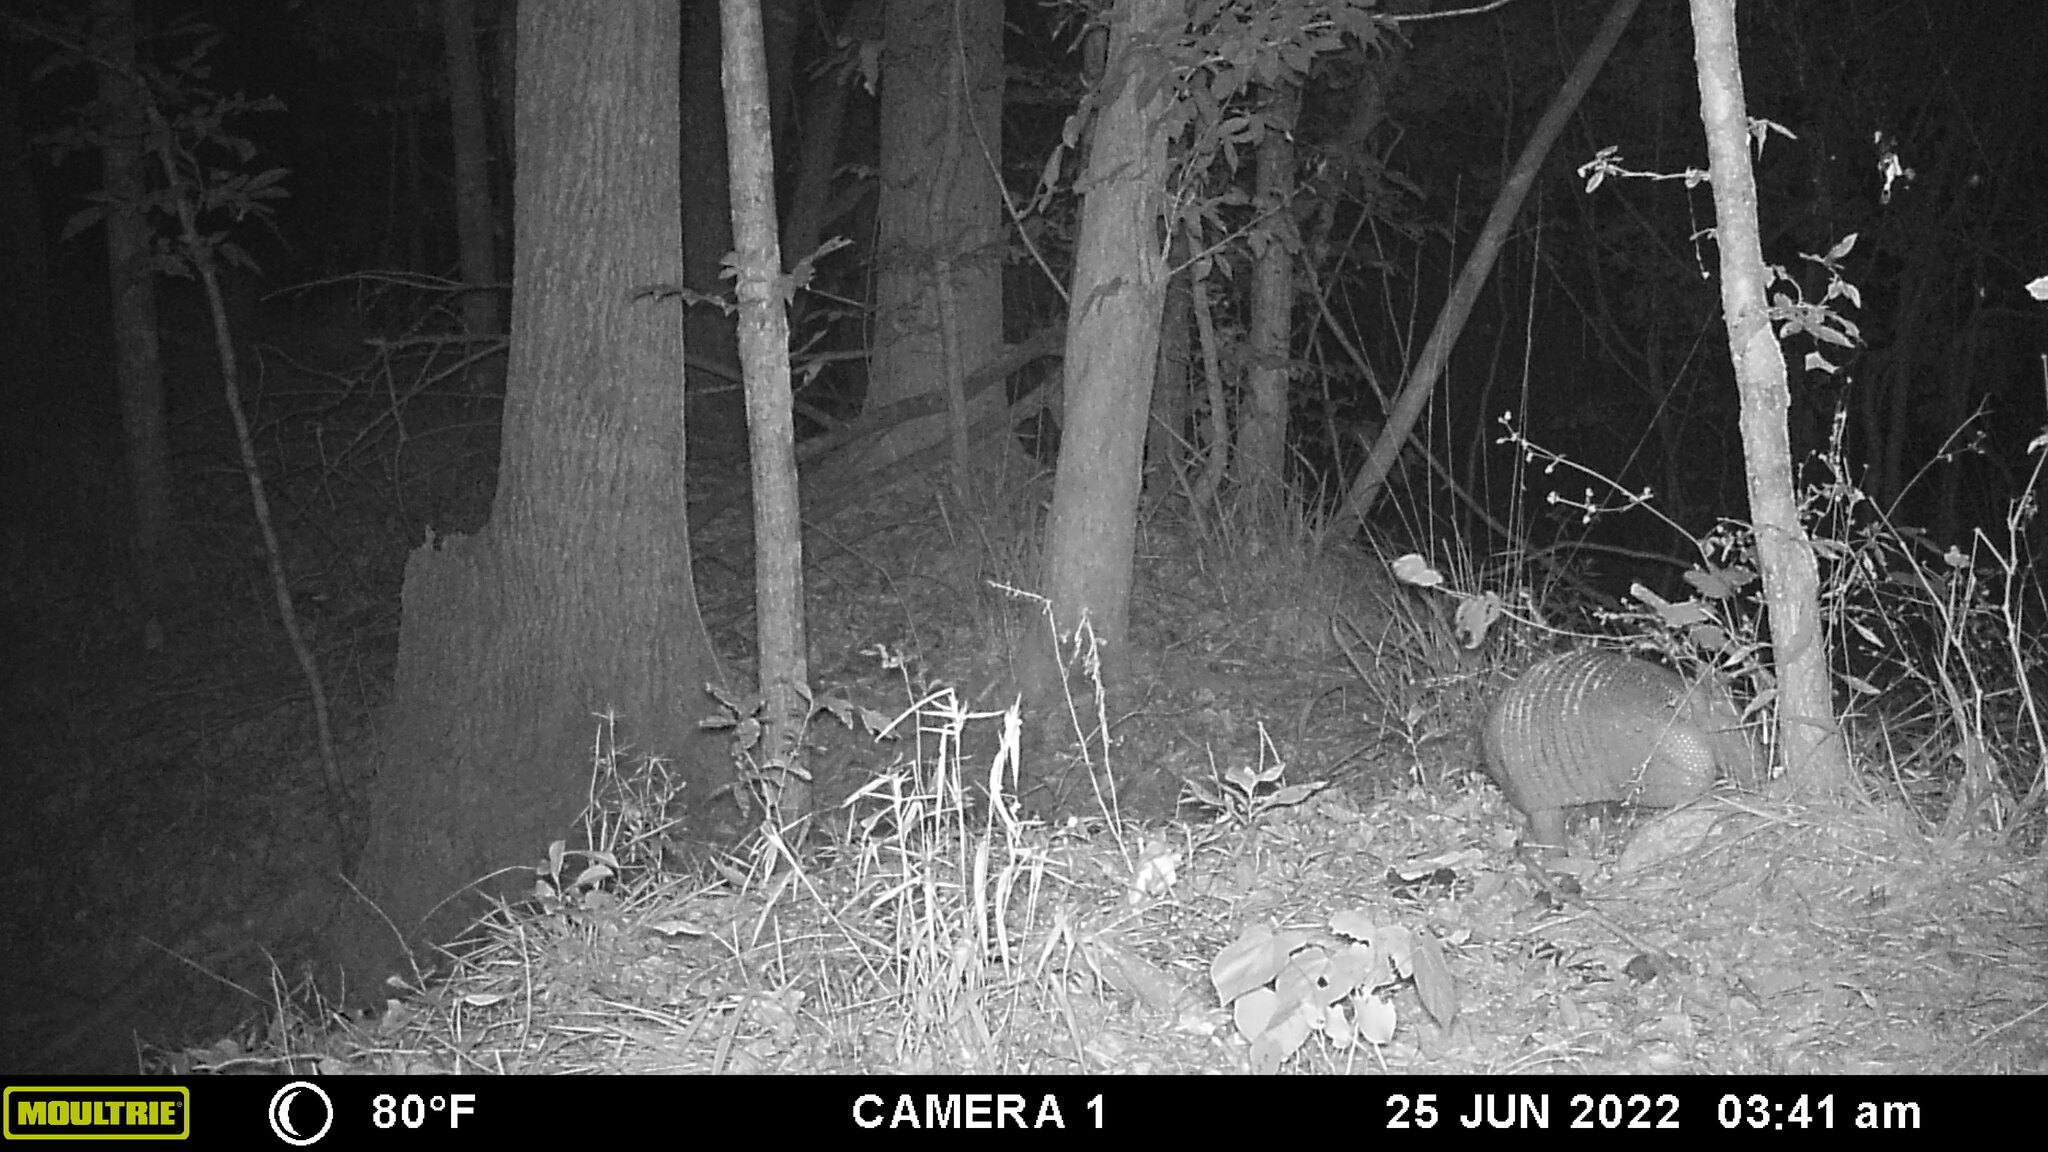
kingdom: Animalia
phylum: Chordata
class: Mammalia
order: Cingulata
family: Dasypodidae
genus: Dasypus
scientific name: Dasypus novemcinctus
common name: Nine-banded armadillo
